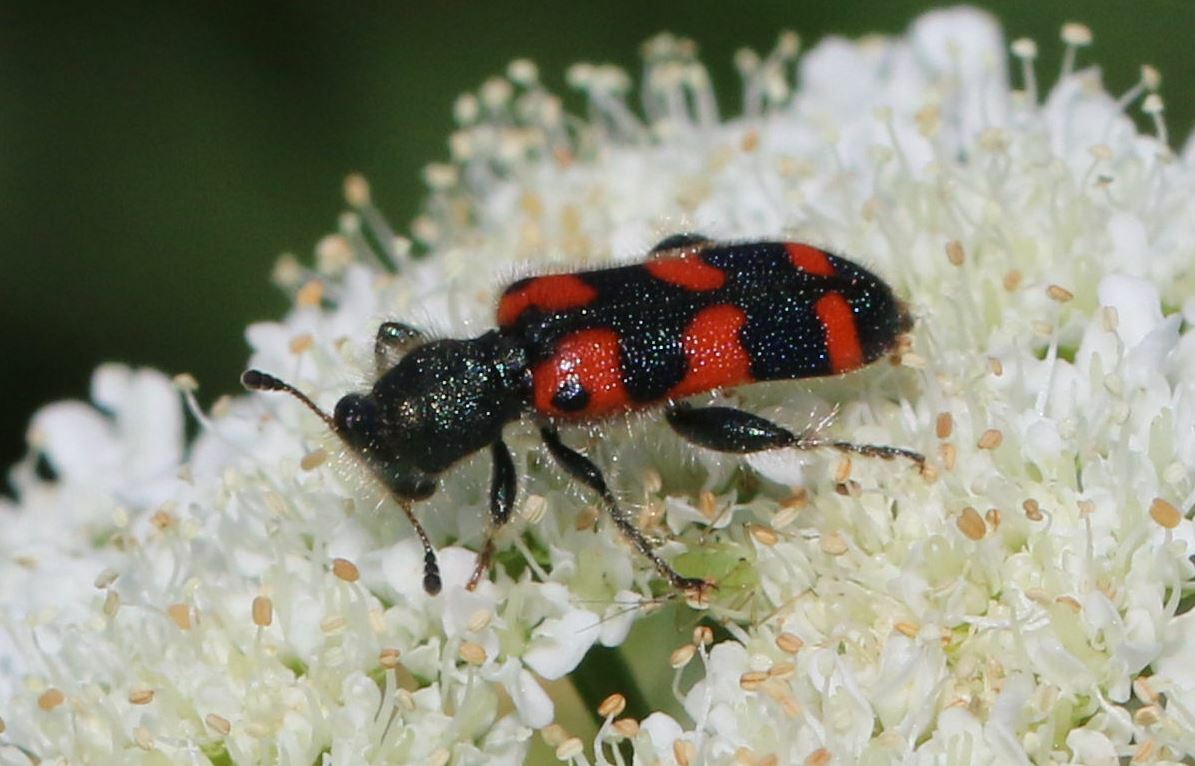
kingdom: Animalia
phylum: Arthropoda
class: Insecta
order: Coleoptera
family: Cleridae
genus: Trichodes
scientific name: Trichodes leucopsideus
